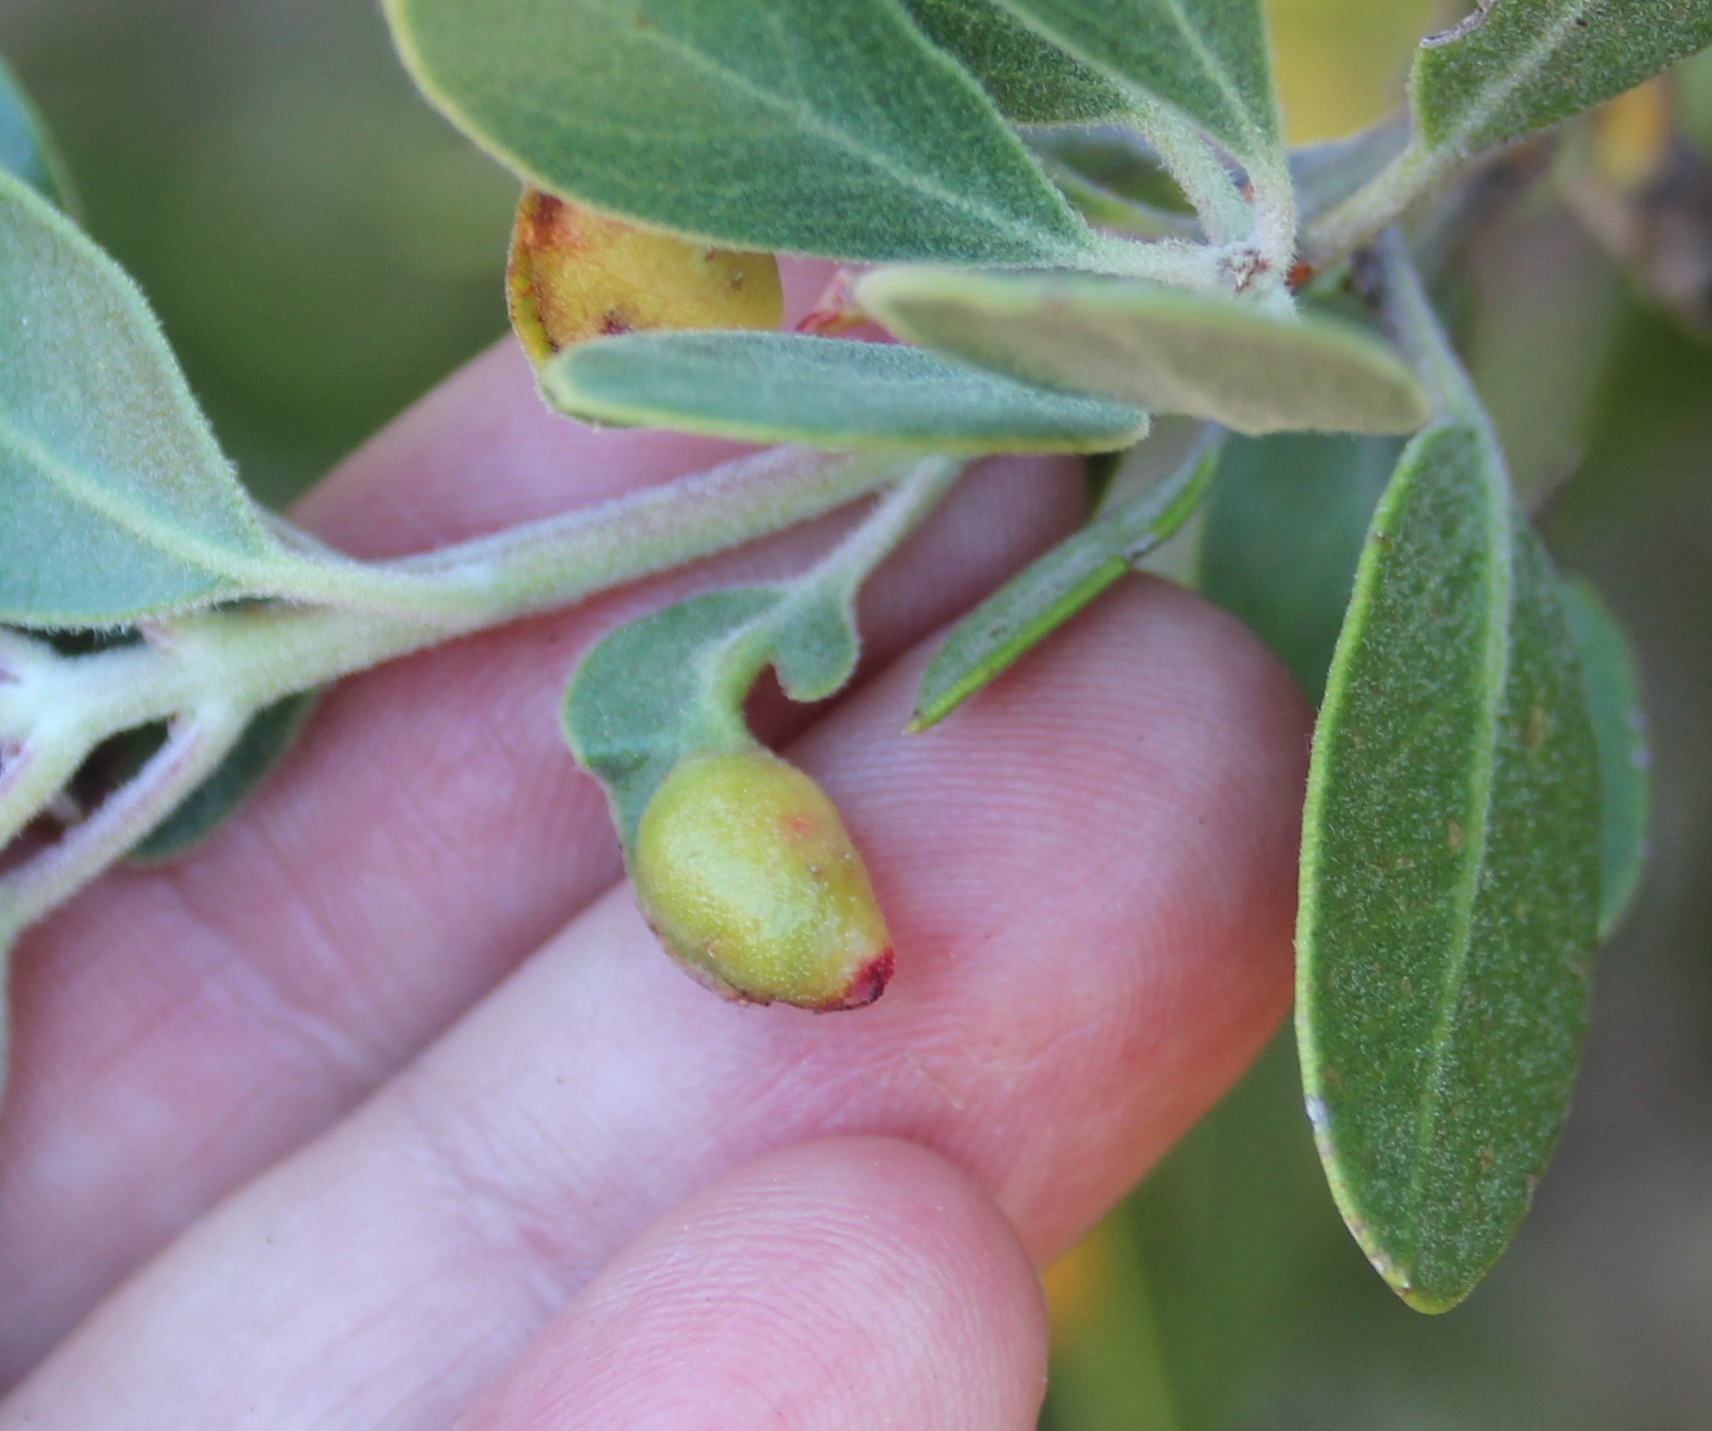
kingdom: Animalia
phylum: Arthropoda
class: Insecta
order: Hemiptera
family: Aphididae
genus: Tamalia
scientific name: Tamalia coweni
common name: Manzanita leafgall aphid
